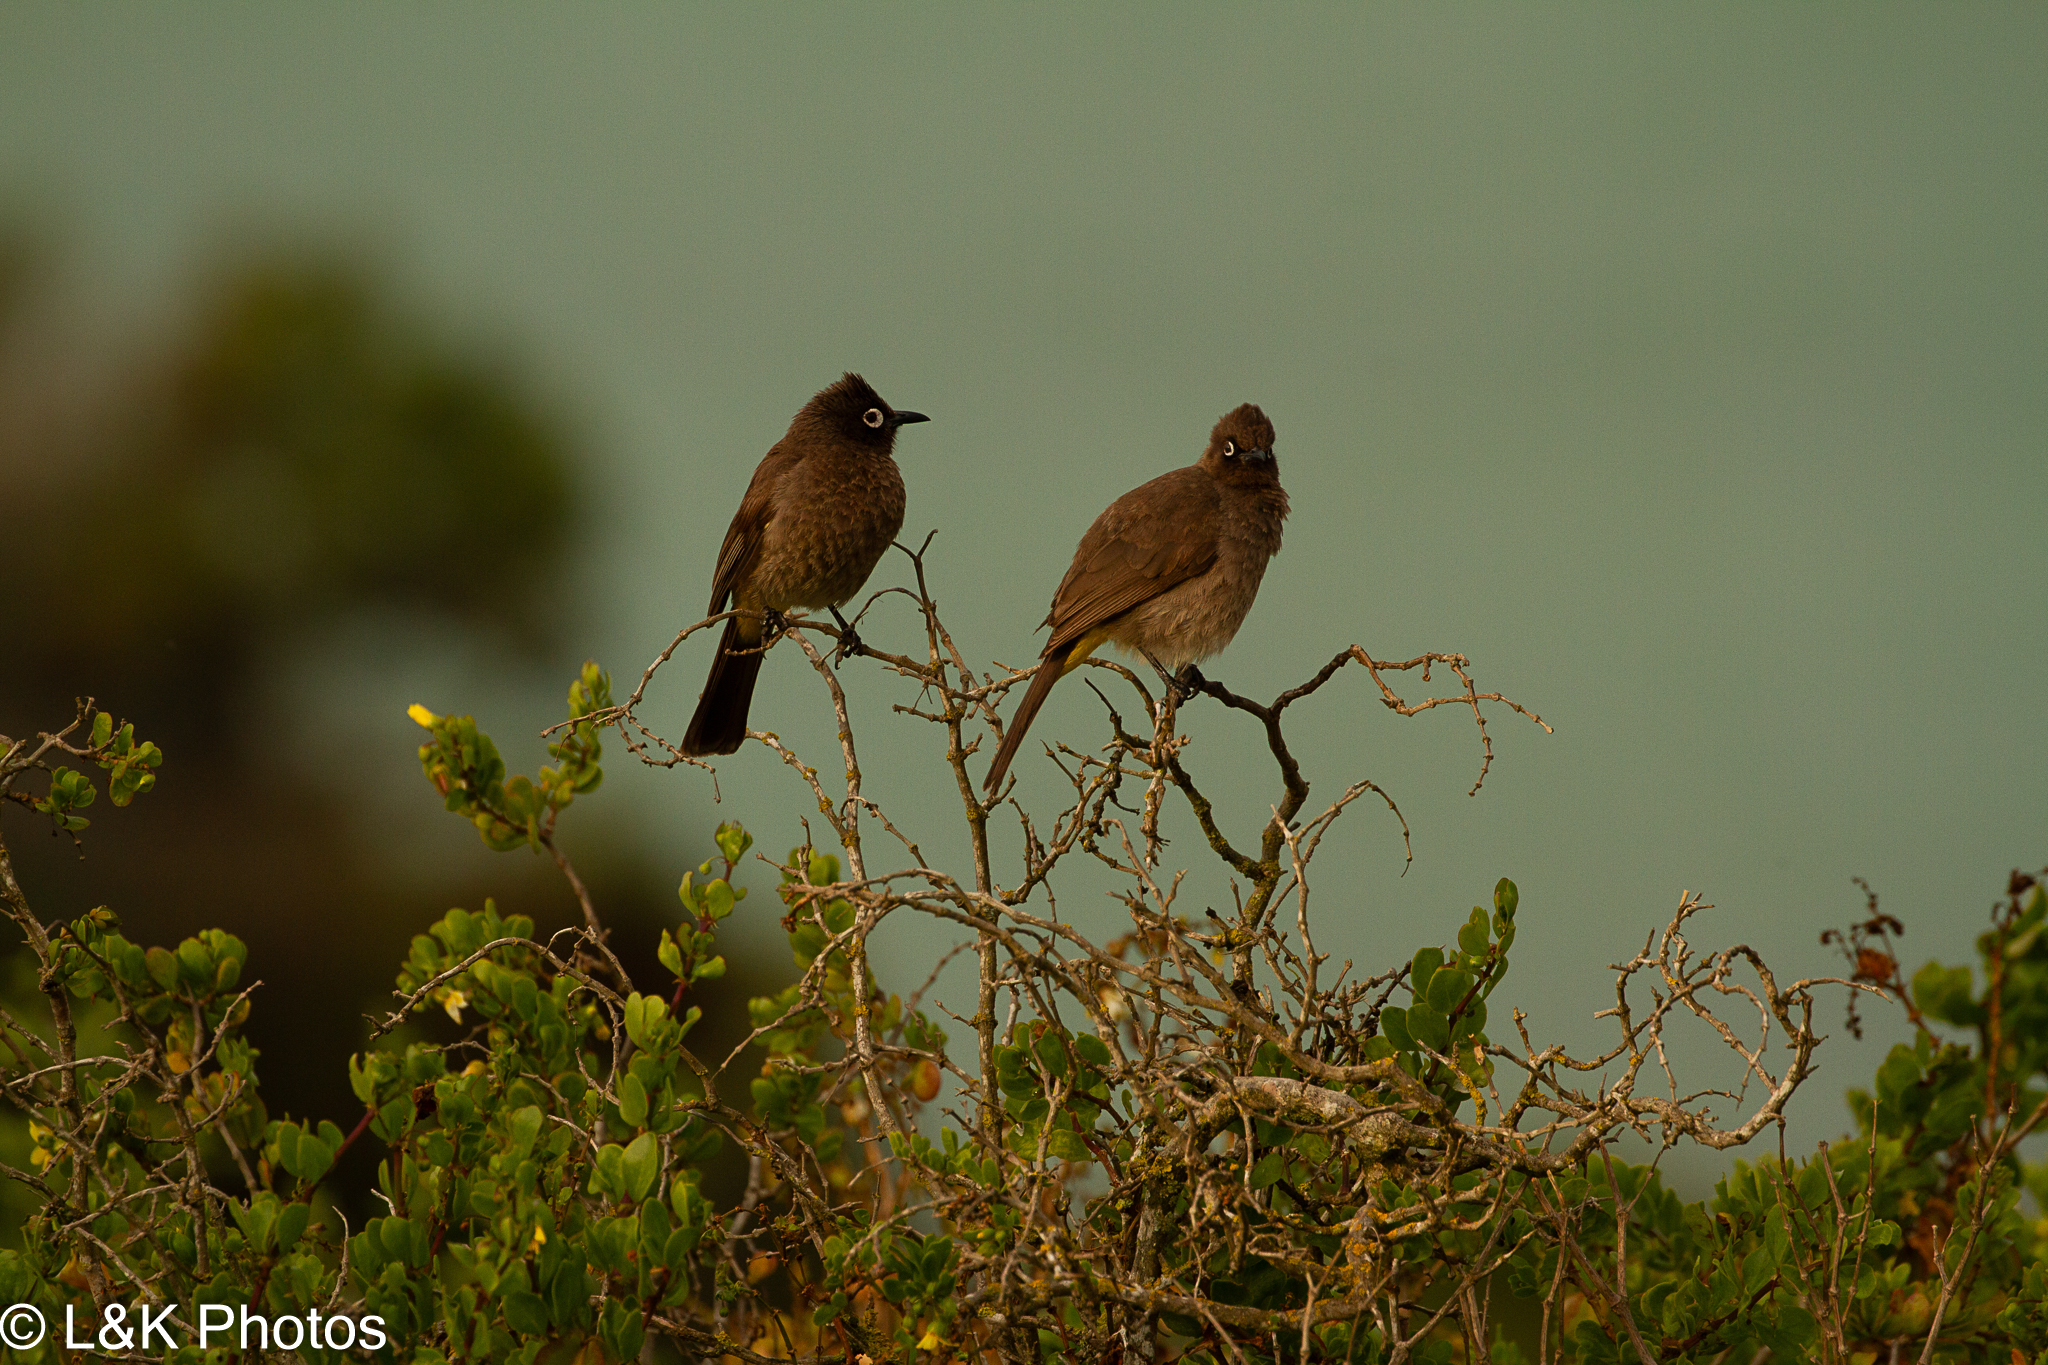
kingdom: Animalia
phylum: Chordata
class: Aves
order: Passeriformes
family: Pycnonotidae
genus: Pycnonotus
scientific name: Pycnonotus capensis
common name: Cape bulbul
